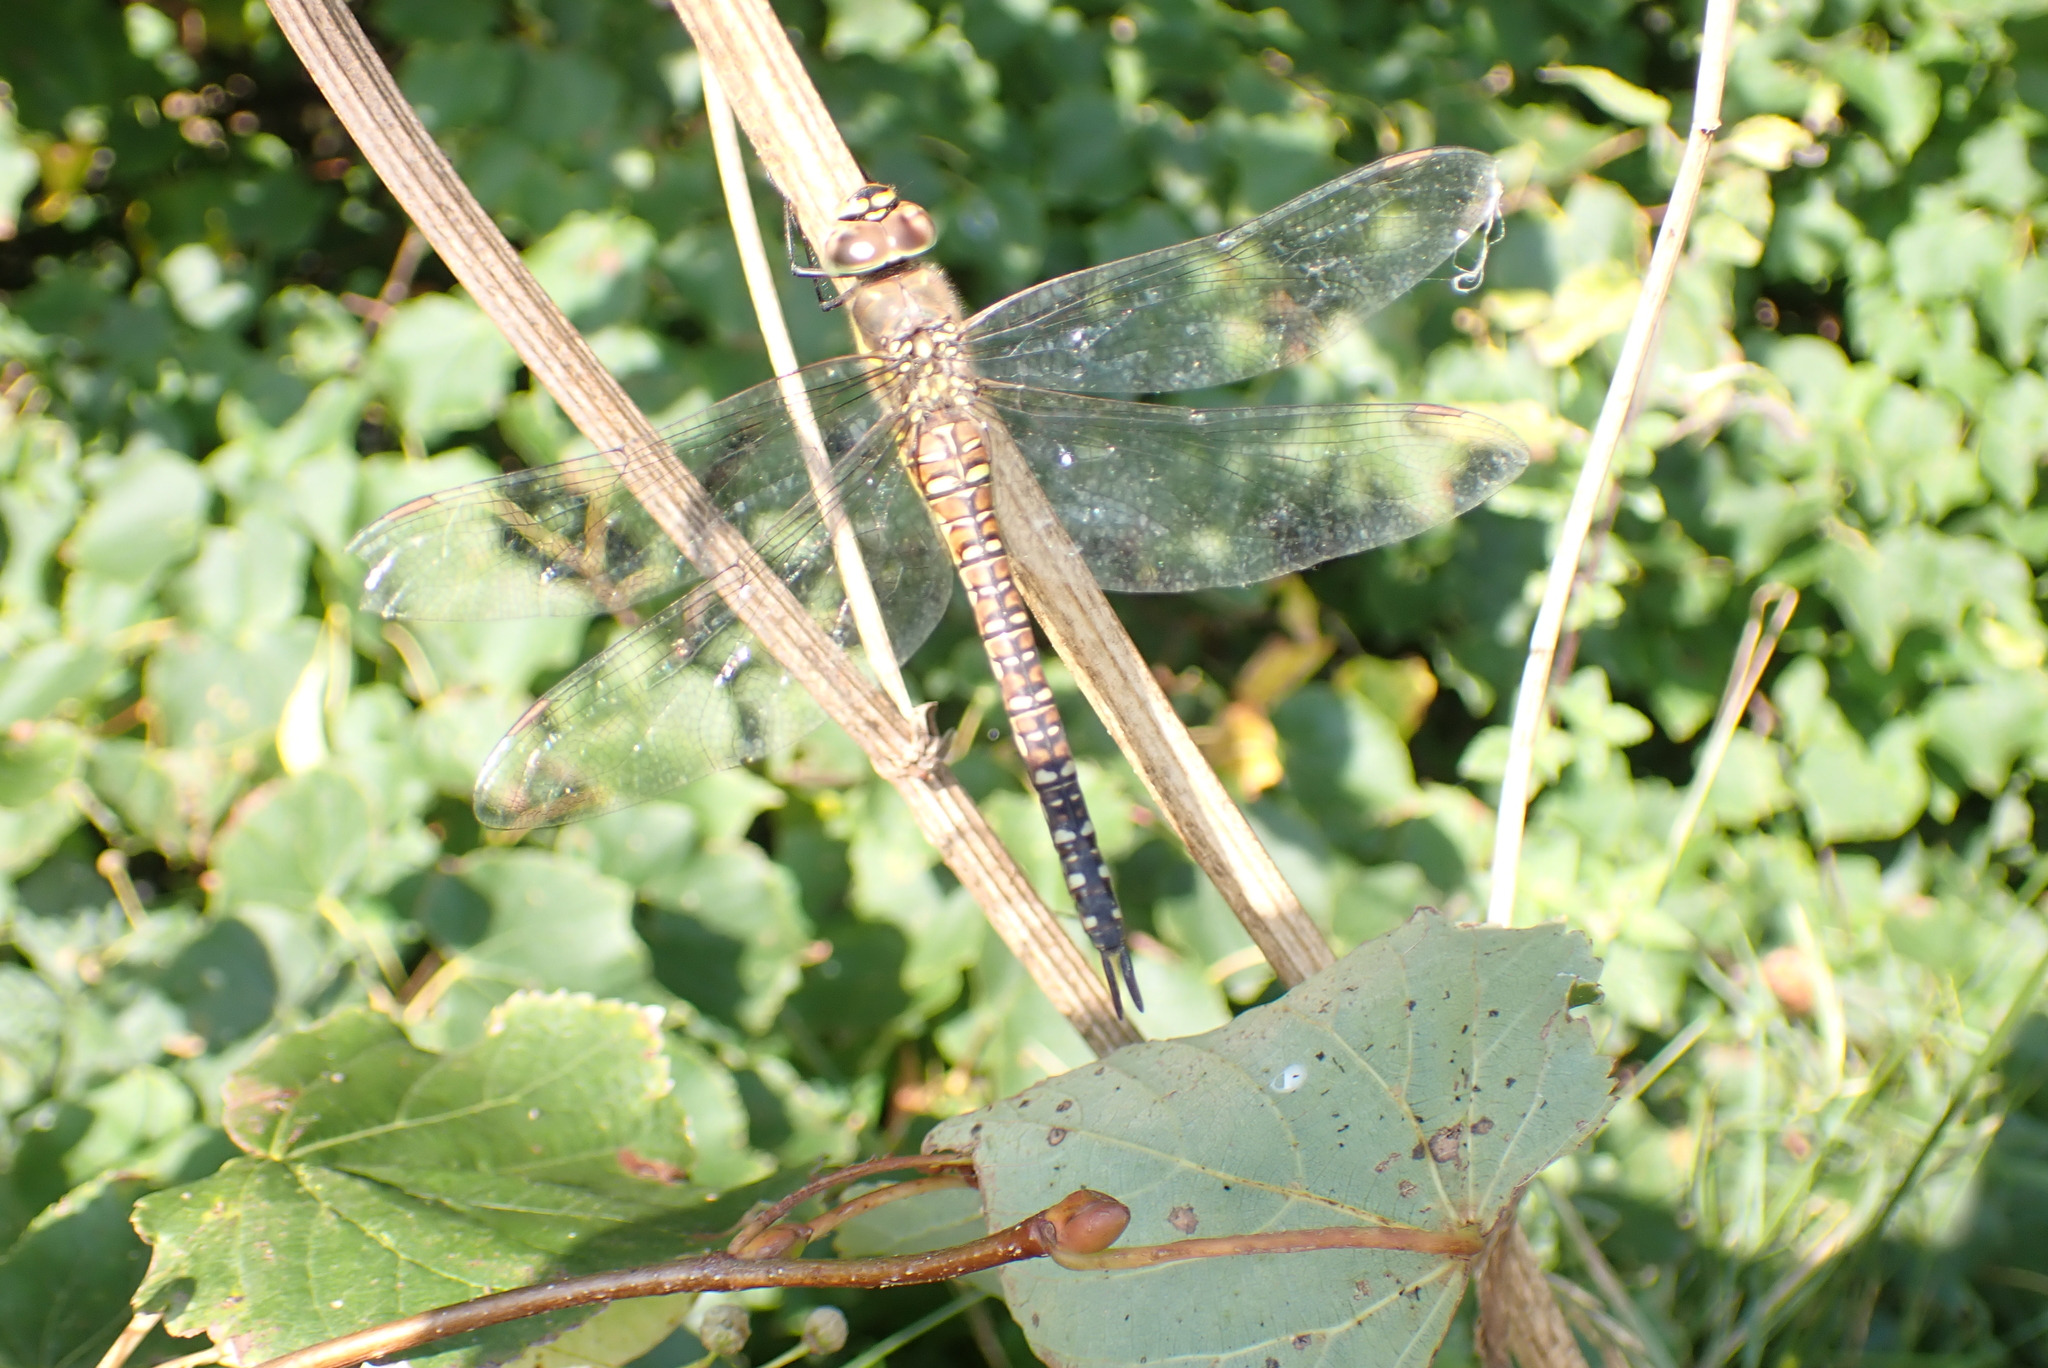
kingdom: Animalia
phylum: Arthropoda
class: Insecta
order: Odonata
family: Aeshnidae
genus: Aeshna
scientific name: Aeshna mixta
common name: Migrant hawker
